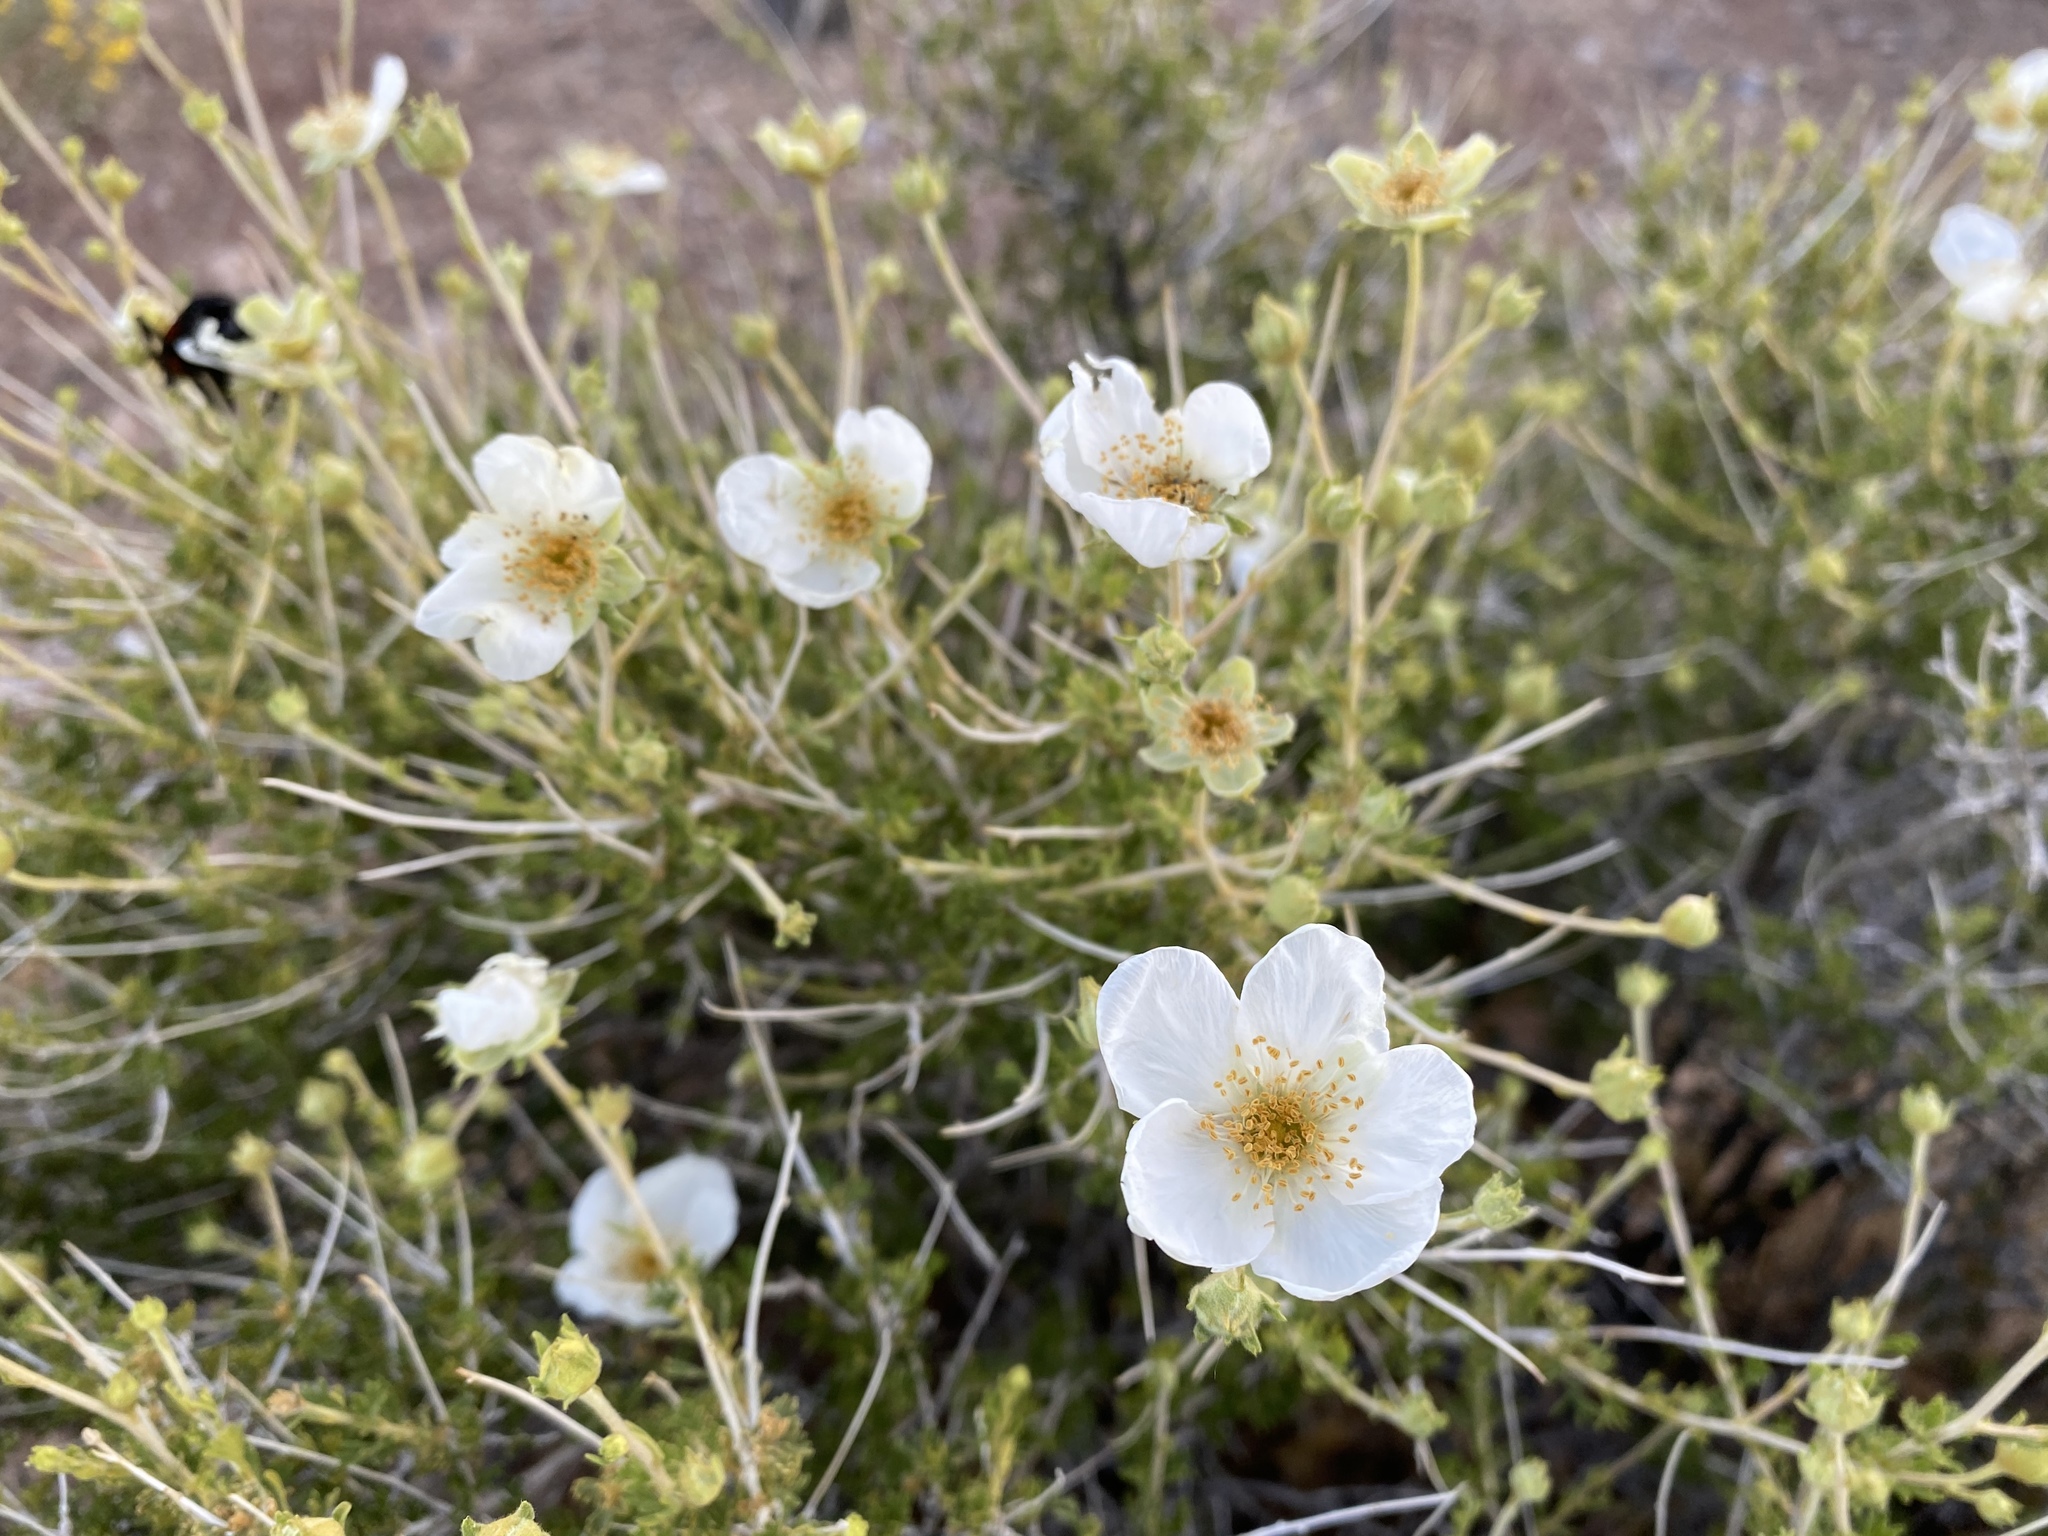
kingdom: Plantae
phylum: Tracheophyta
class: Magnoliopsida
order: Rosales
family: Rosaceae
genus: Fallugia
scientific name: Fallugia paradoxa
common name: Apache-plume
